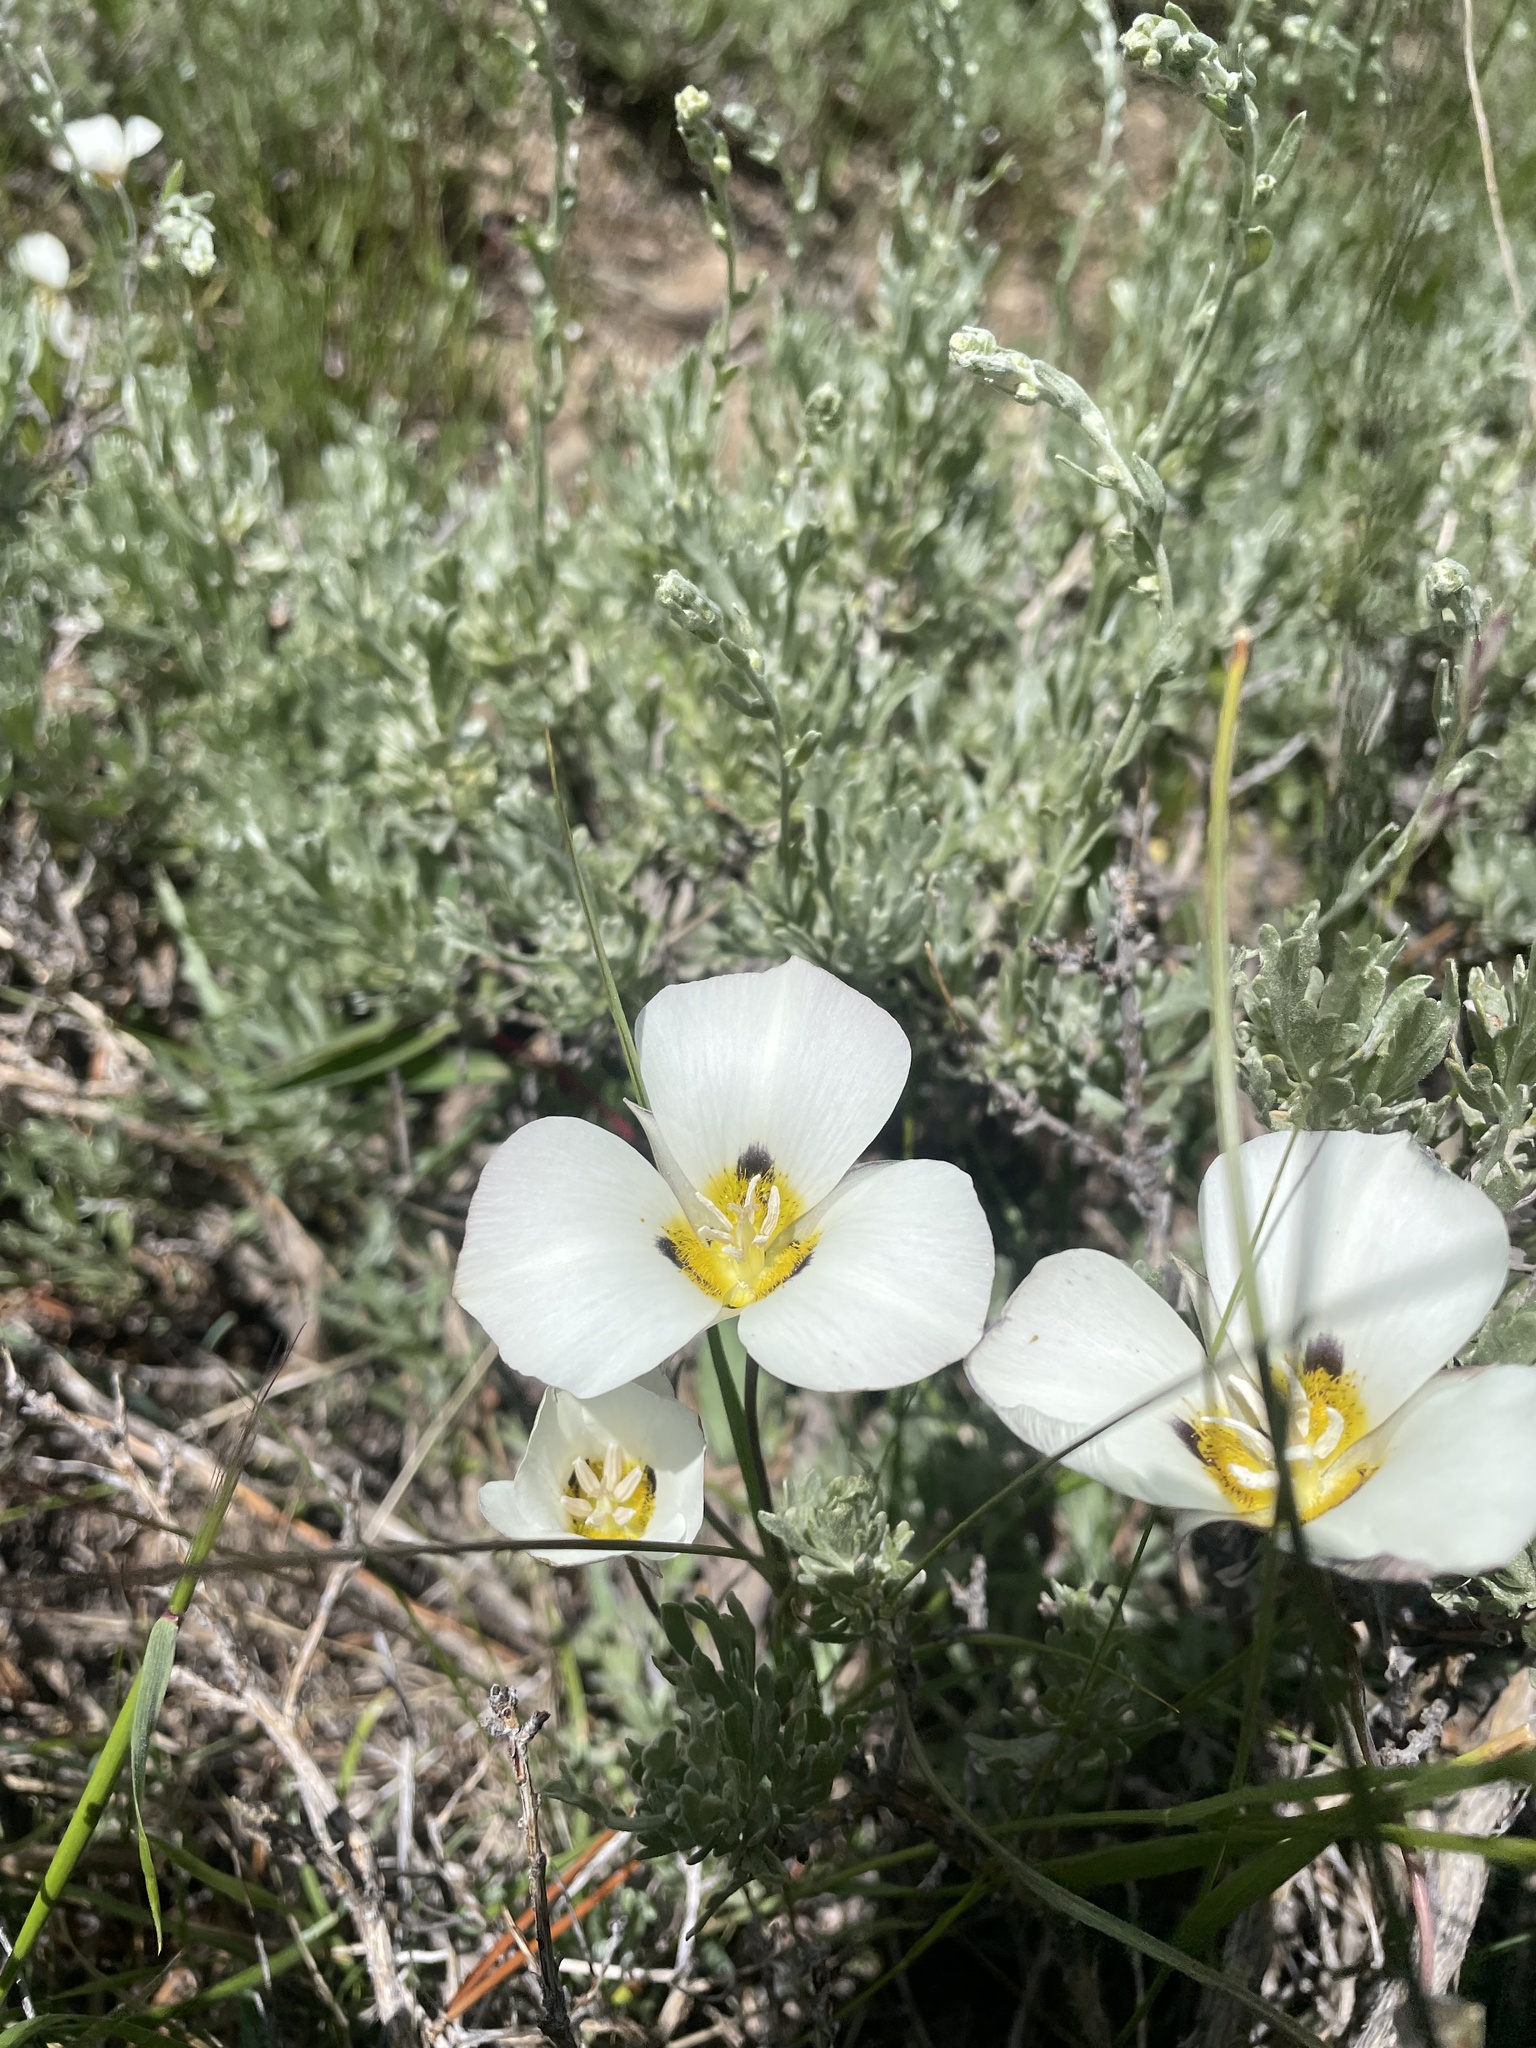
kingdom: Plantae
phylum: Tracheophyta
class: Liliopsida
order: Liliales
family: Liliaceae
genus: Calochortus
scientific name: Calochortus leichtlinii
